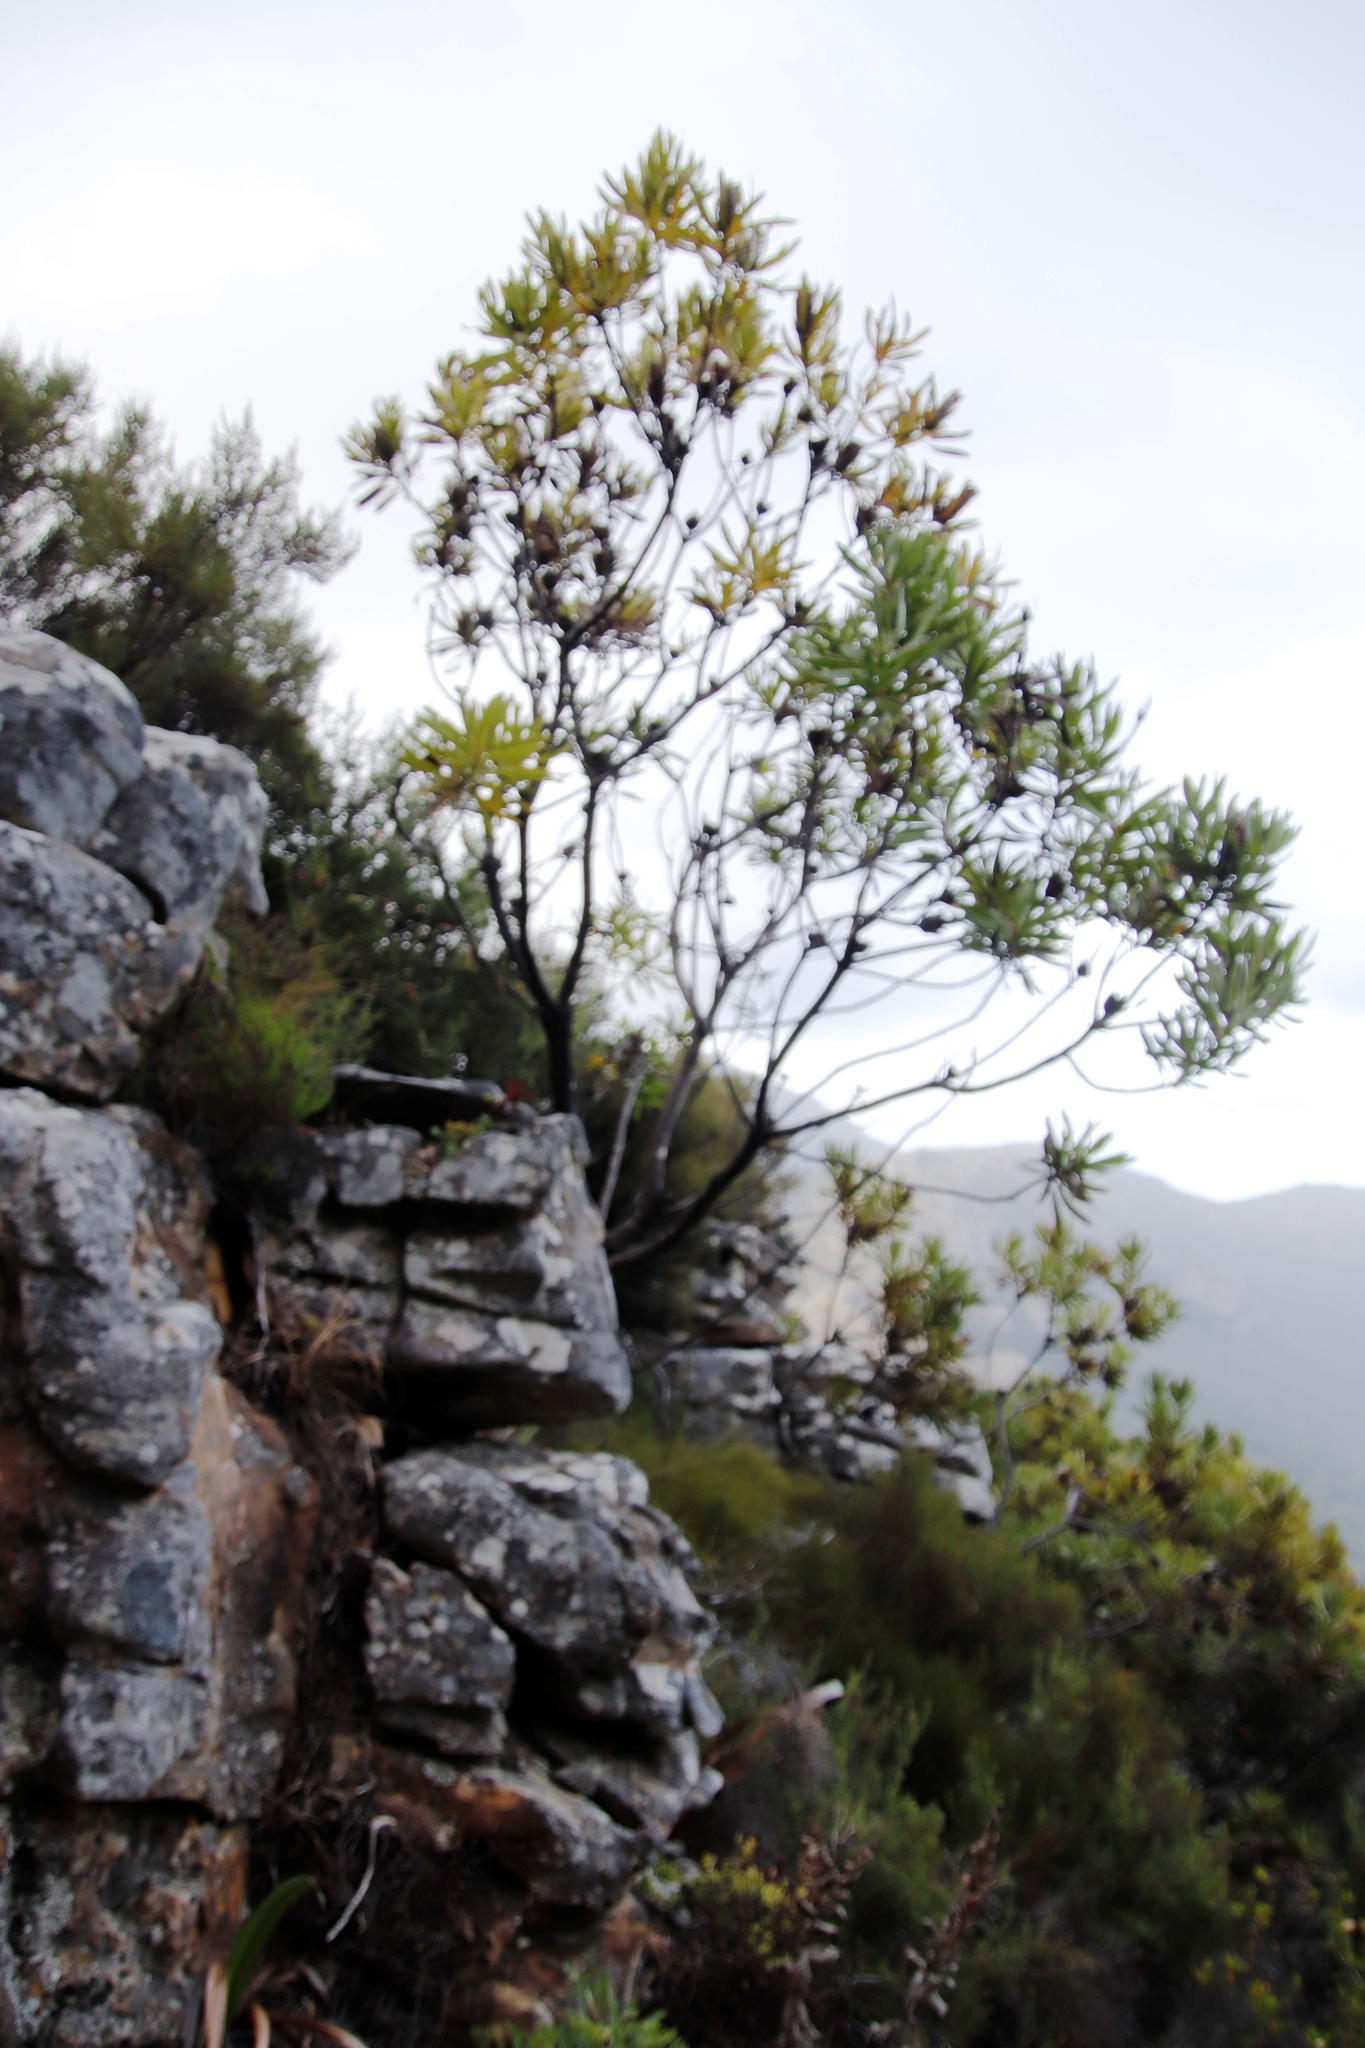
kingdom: Plantae
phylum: Tracheophyta
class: Magnoliopsida
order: Proteales
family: Proteaceae
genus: Protea
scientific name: Protea lepidocarpodendron
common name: Black-bearded protea
